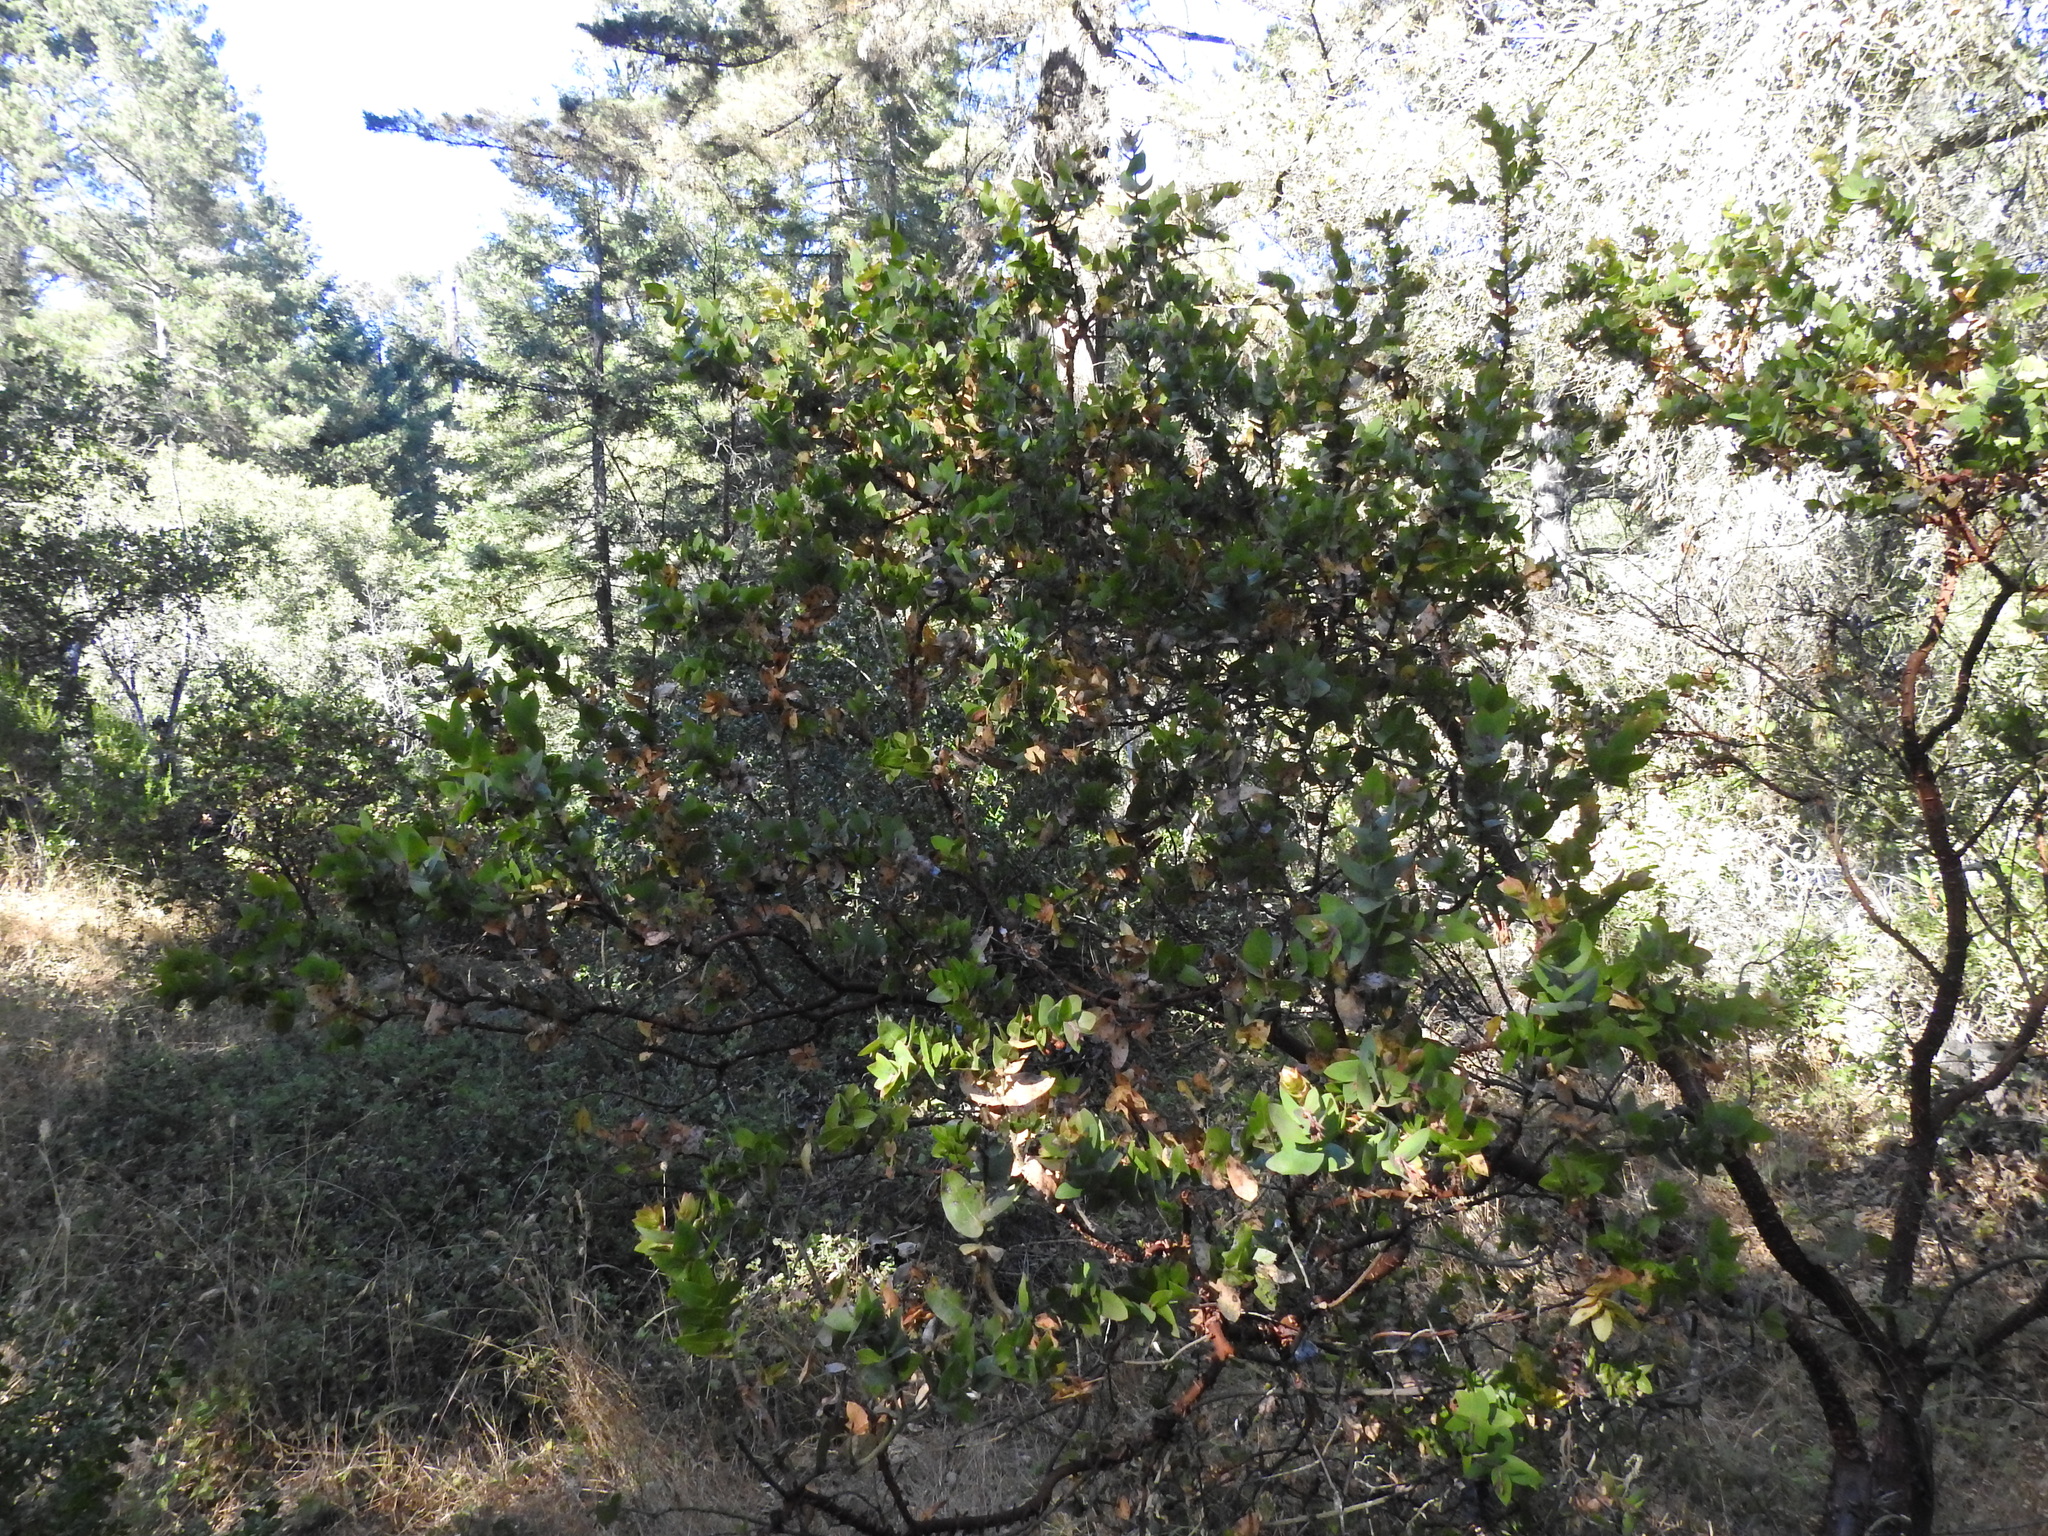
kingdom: Plantae
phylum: Tracheophyta
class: Magnoliopsida
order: Ericales
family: Ericaceae
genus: Arctostaphylos
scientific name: Arctostaphylos pallida
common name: Pallid manzanita
